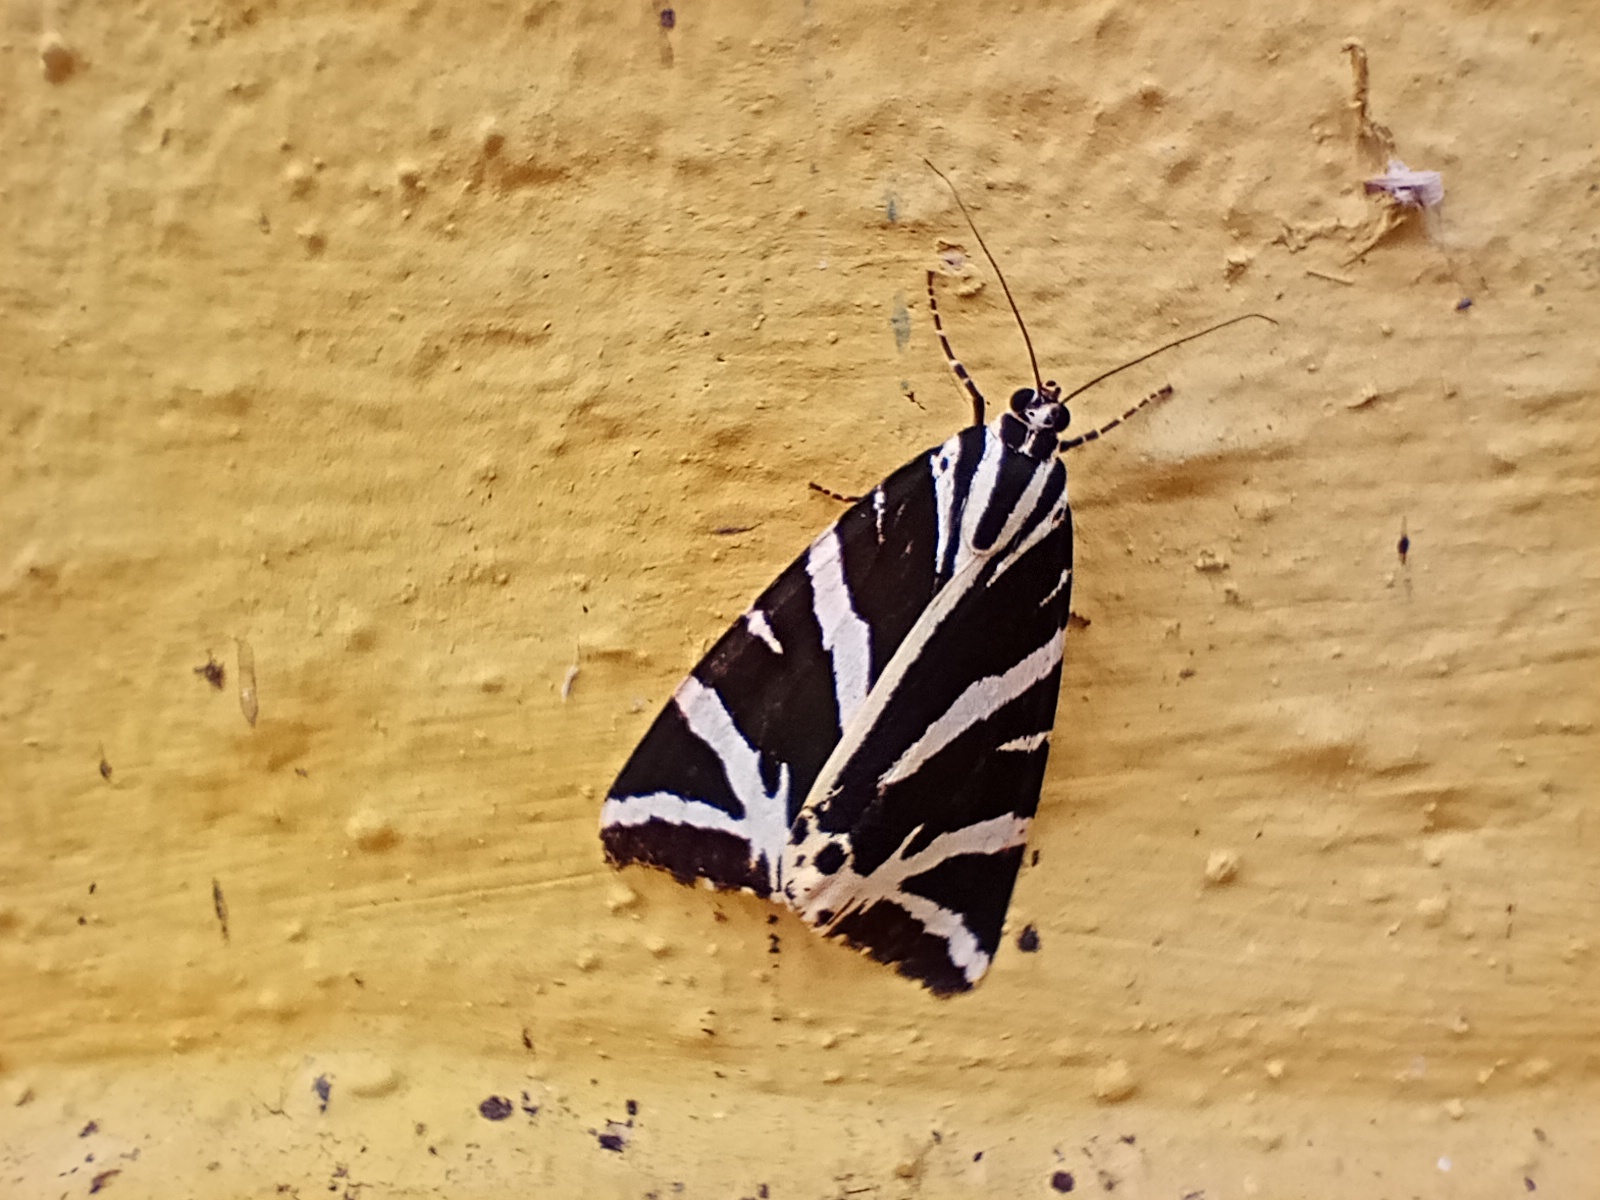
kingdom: Animalia
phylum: Arthropoda
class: Insecta
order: Lepidoptera
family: Erebidae
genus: Euplagia
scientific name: Euplagia quadripunctaria
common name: Jersey tiger
